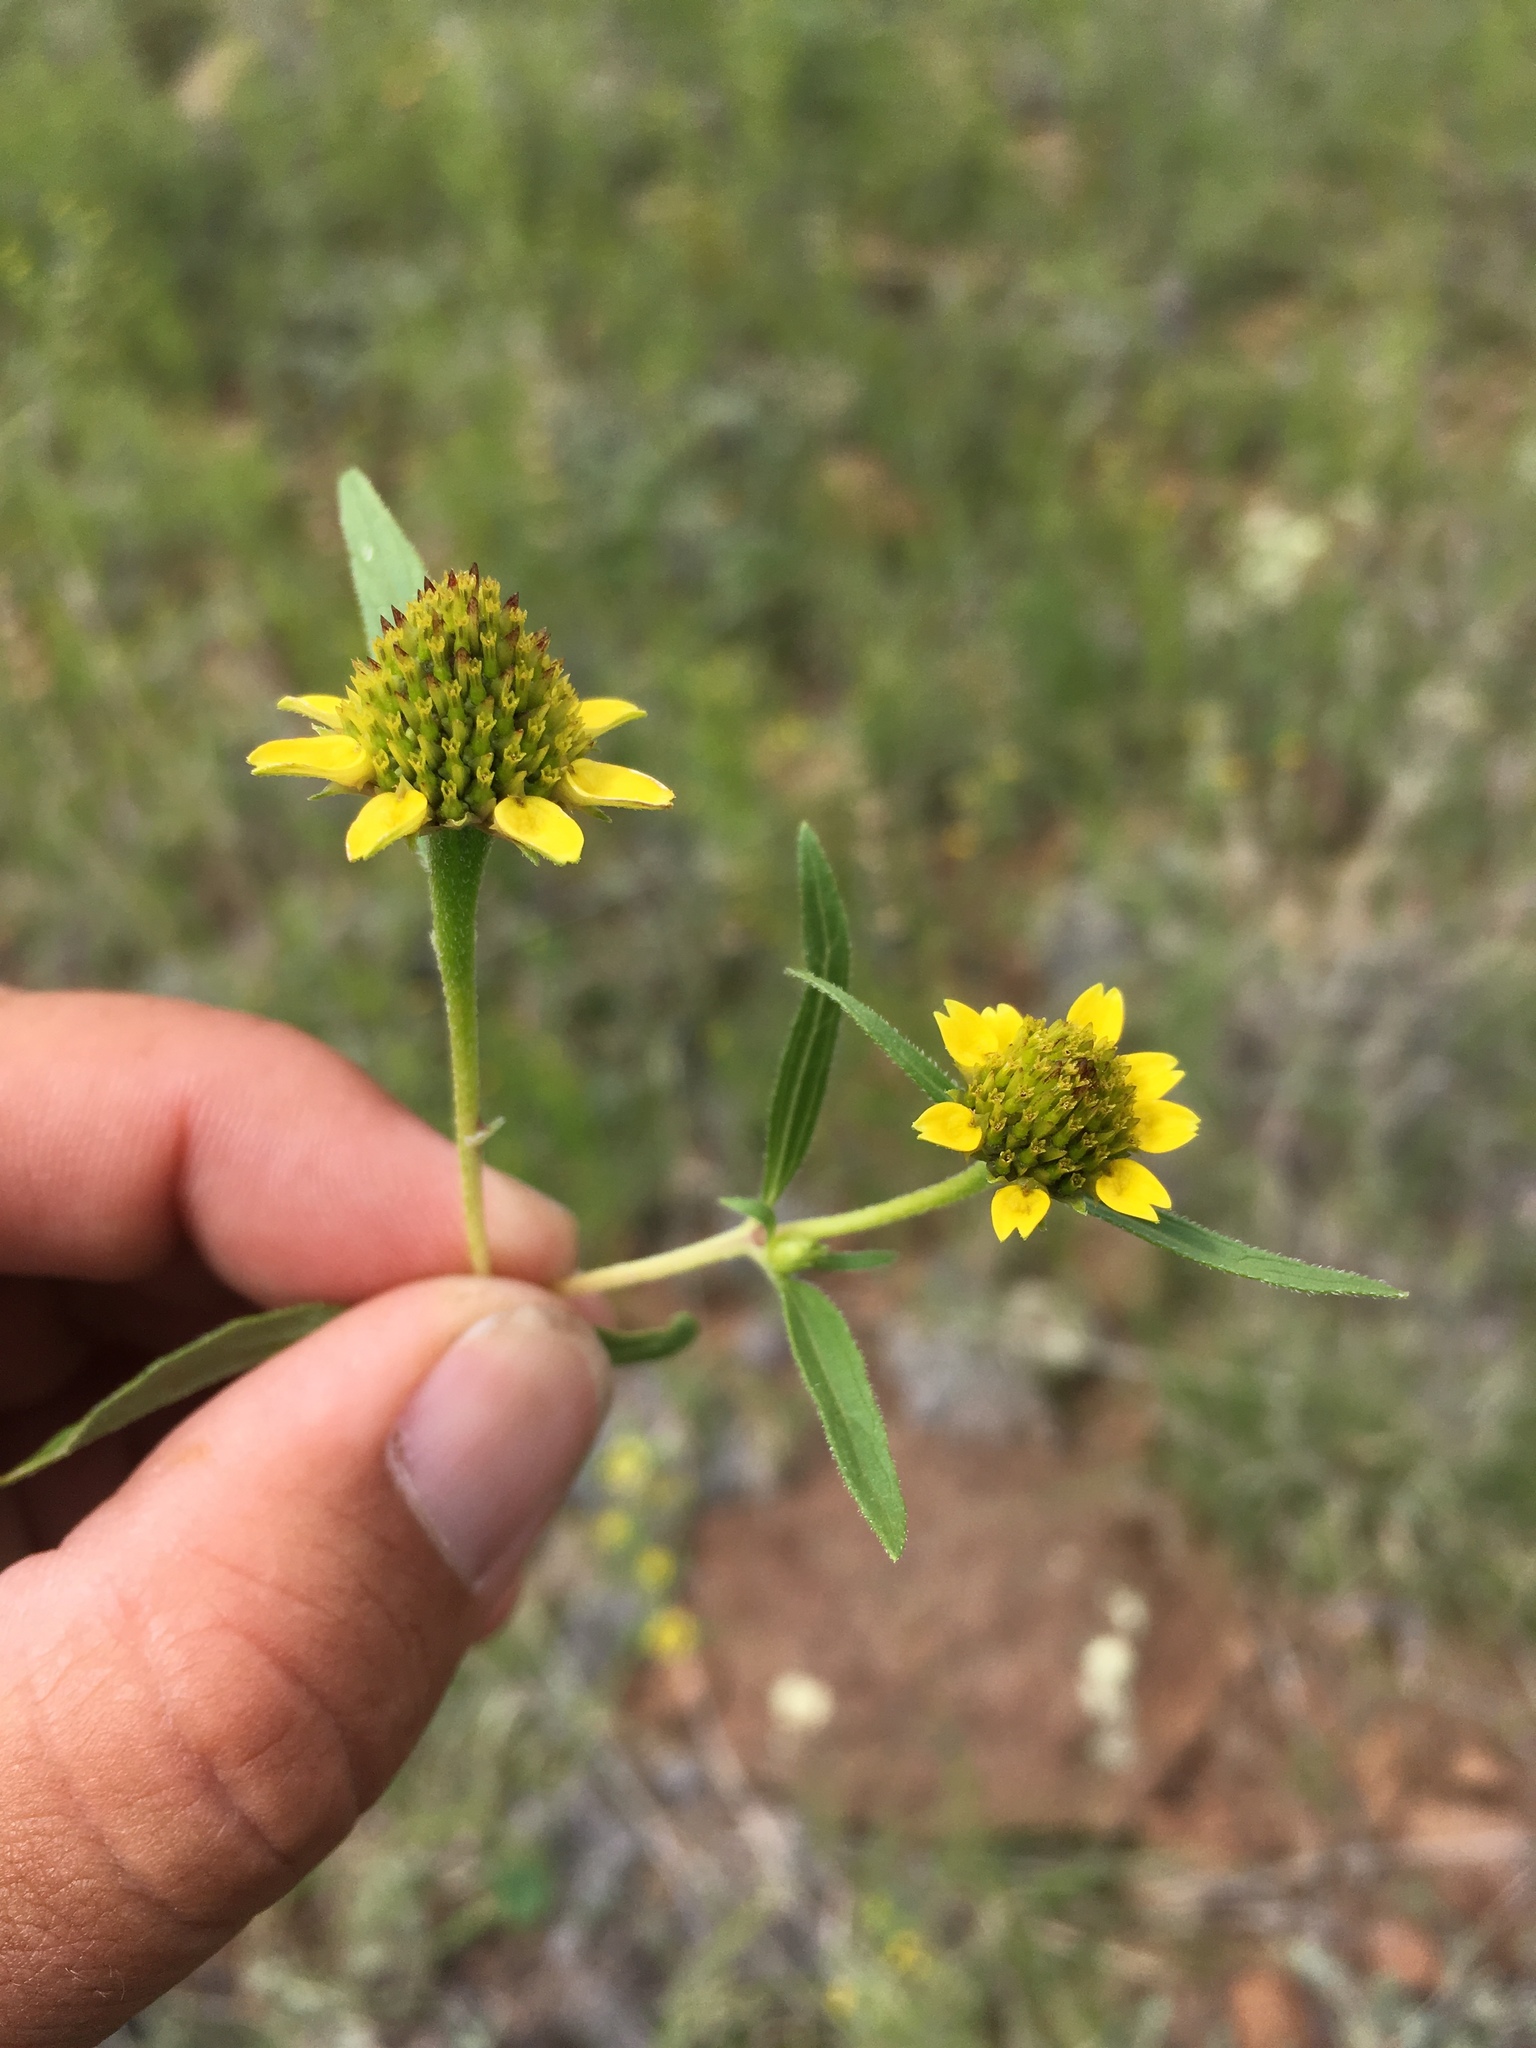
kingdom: Plantae
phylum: Tracheophyta
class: Magnoliopsida
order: Asterales
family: Asteraceae
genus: Sanvitalia
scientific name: Sanvitalia abertii
